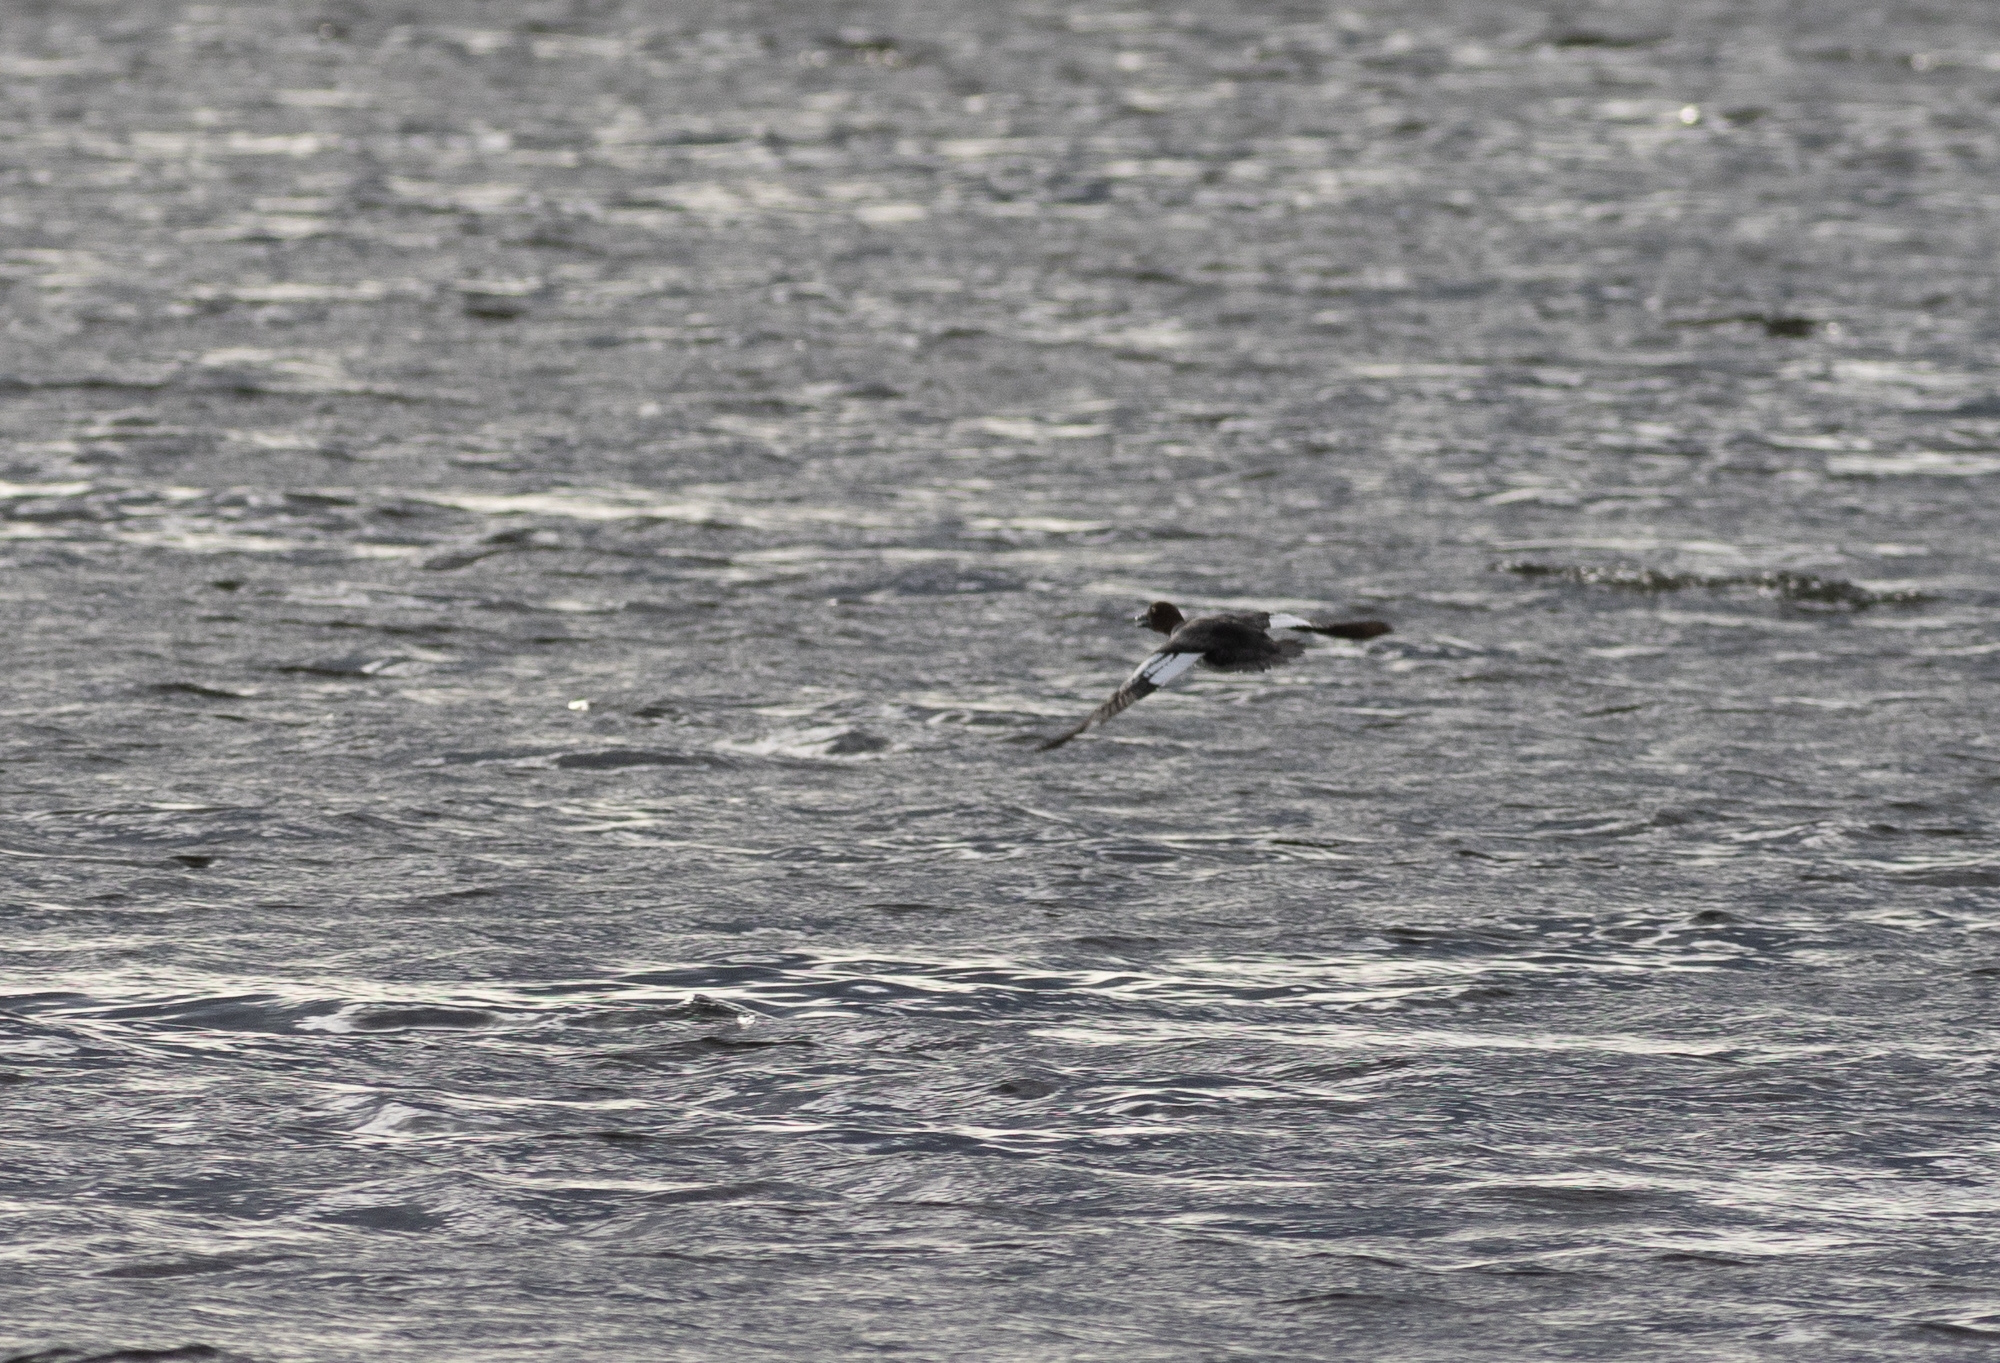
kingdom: Animalia
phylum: Chordata
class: Aves
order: Anseriformes
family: Anatidae
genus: Bucephala
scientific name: Bucephala clangula
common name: Common goldeneye
